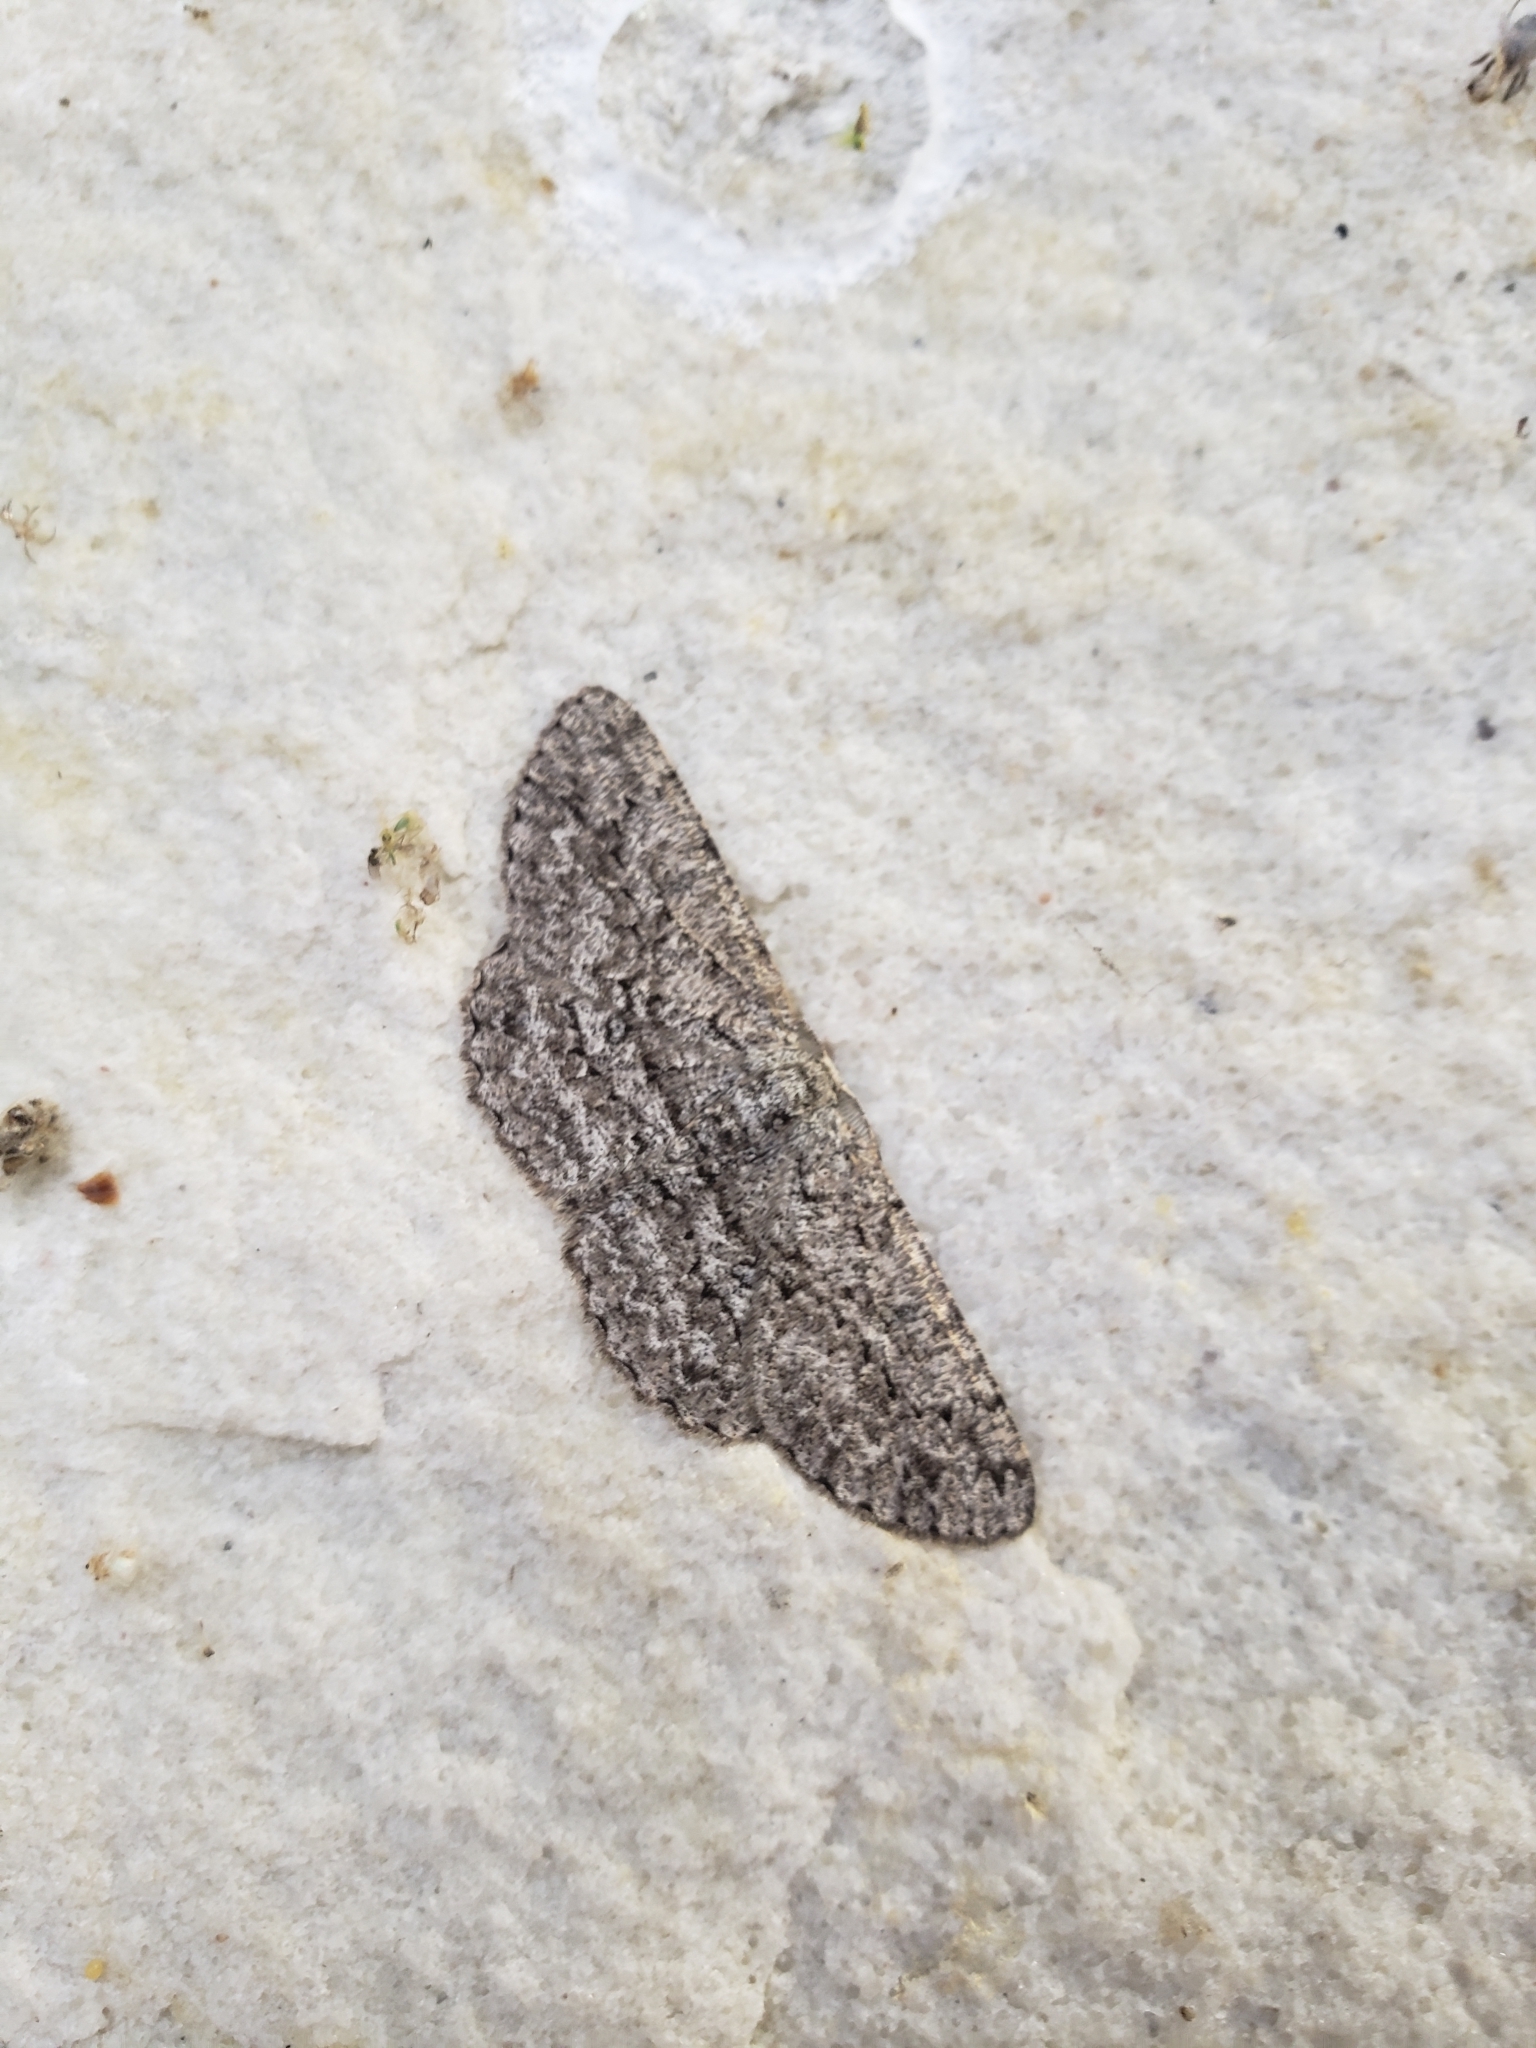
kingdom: Animalia
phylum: Arthropoda
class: Insecta
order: Lepidoptera
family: Geometridae
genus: Hypomecis
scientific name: Hypomecis umbrosaria
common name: Umber moth
